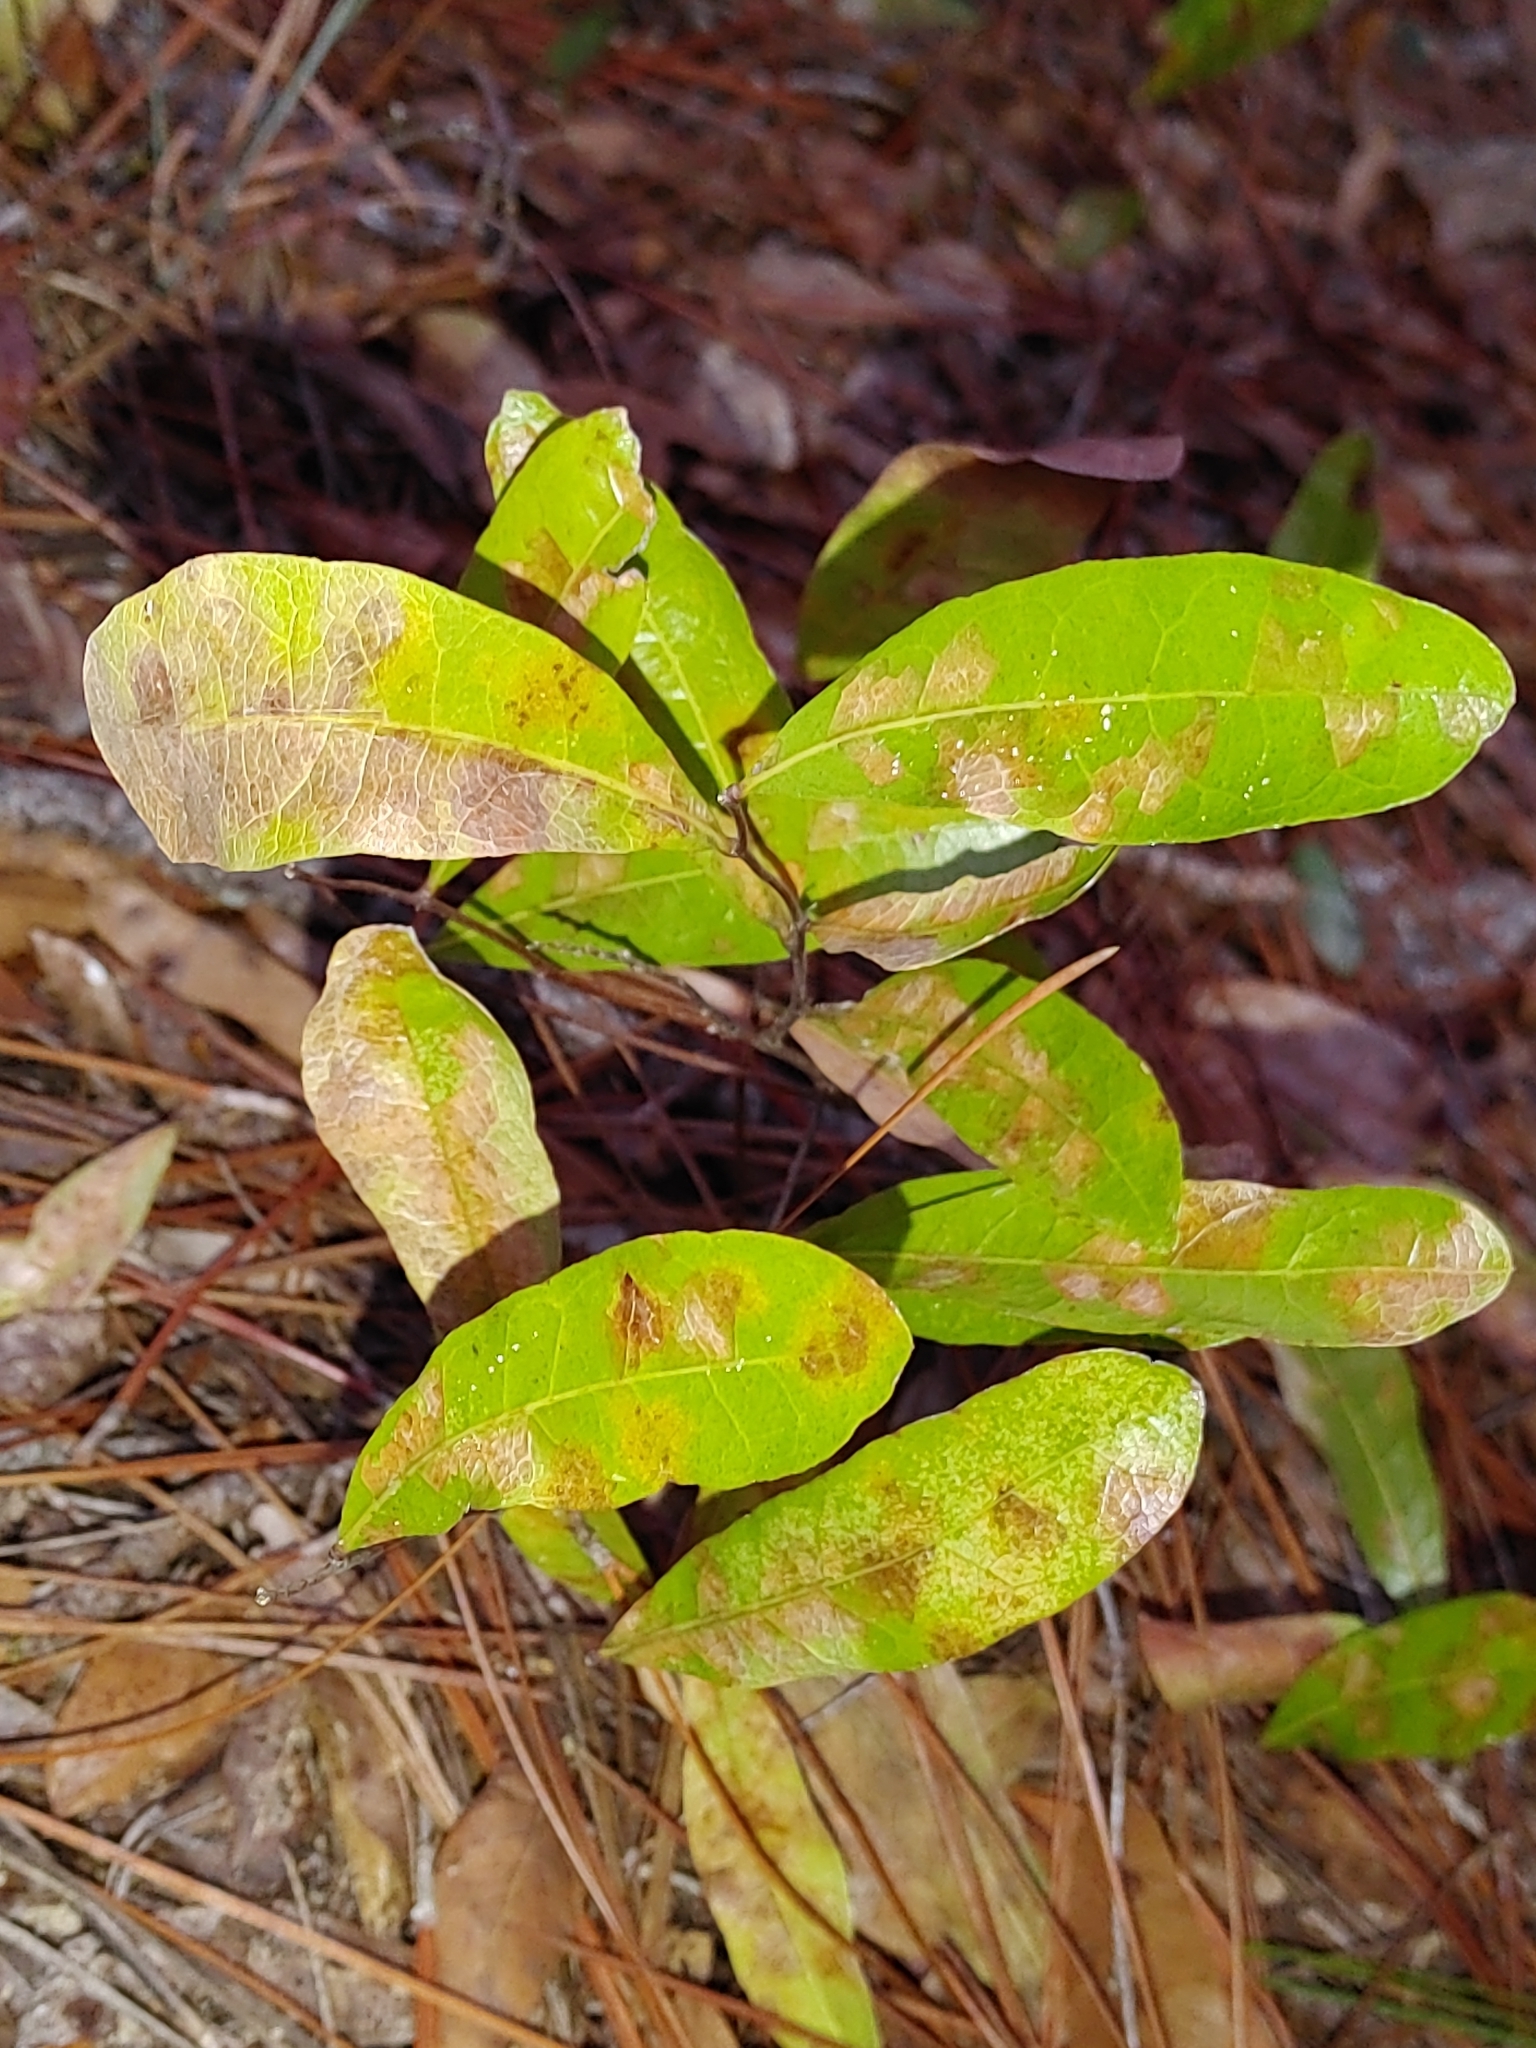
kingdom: Plantae
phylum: Tracheophyta
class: Magnoliopsida
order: Malpighiales
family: Chrysobalanaceae
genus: Geobalanus
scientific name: Geobalanus oblongifolius
